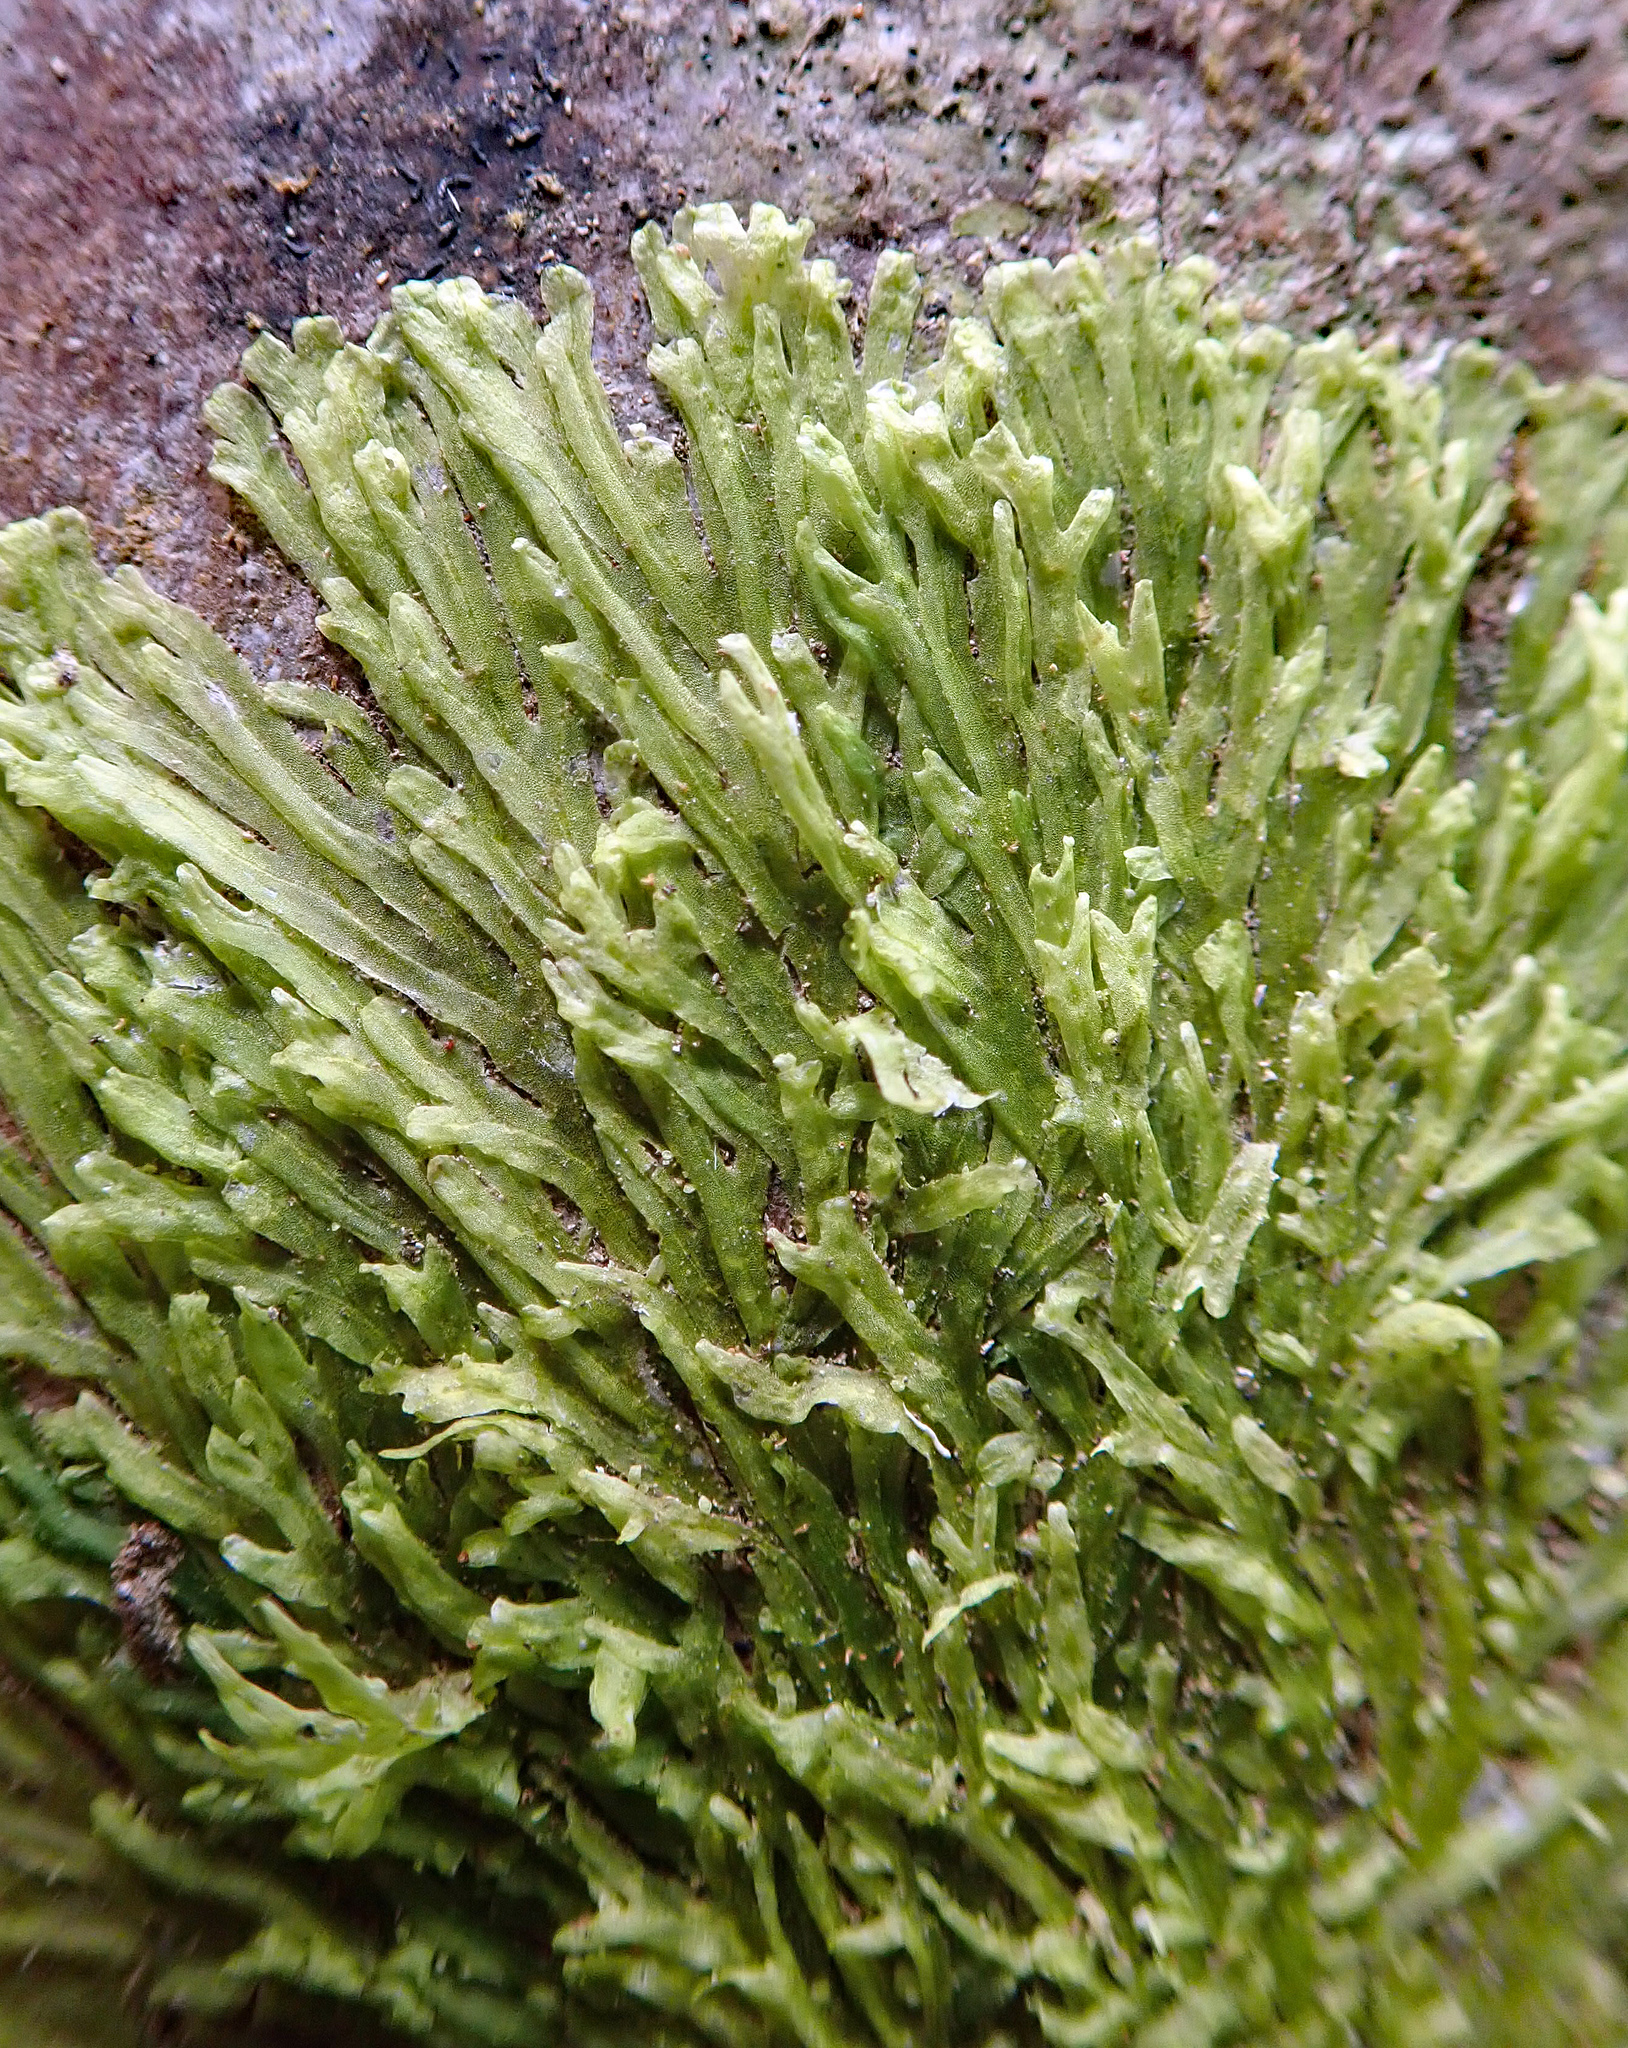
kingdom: Plantae
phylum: Marchantiophyta
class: Jungermanniopsida
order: Metzgeriales
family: Metzgeriaceae
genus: Metzgeria
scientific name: Metzgeria furcata
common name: Forked veilwort
